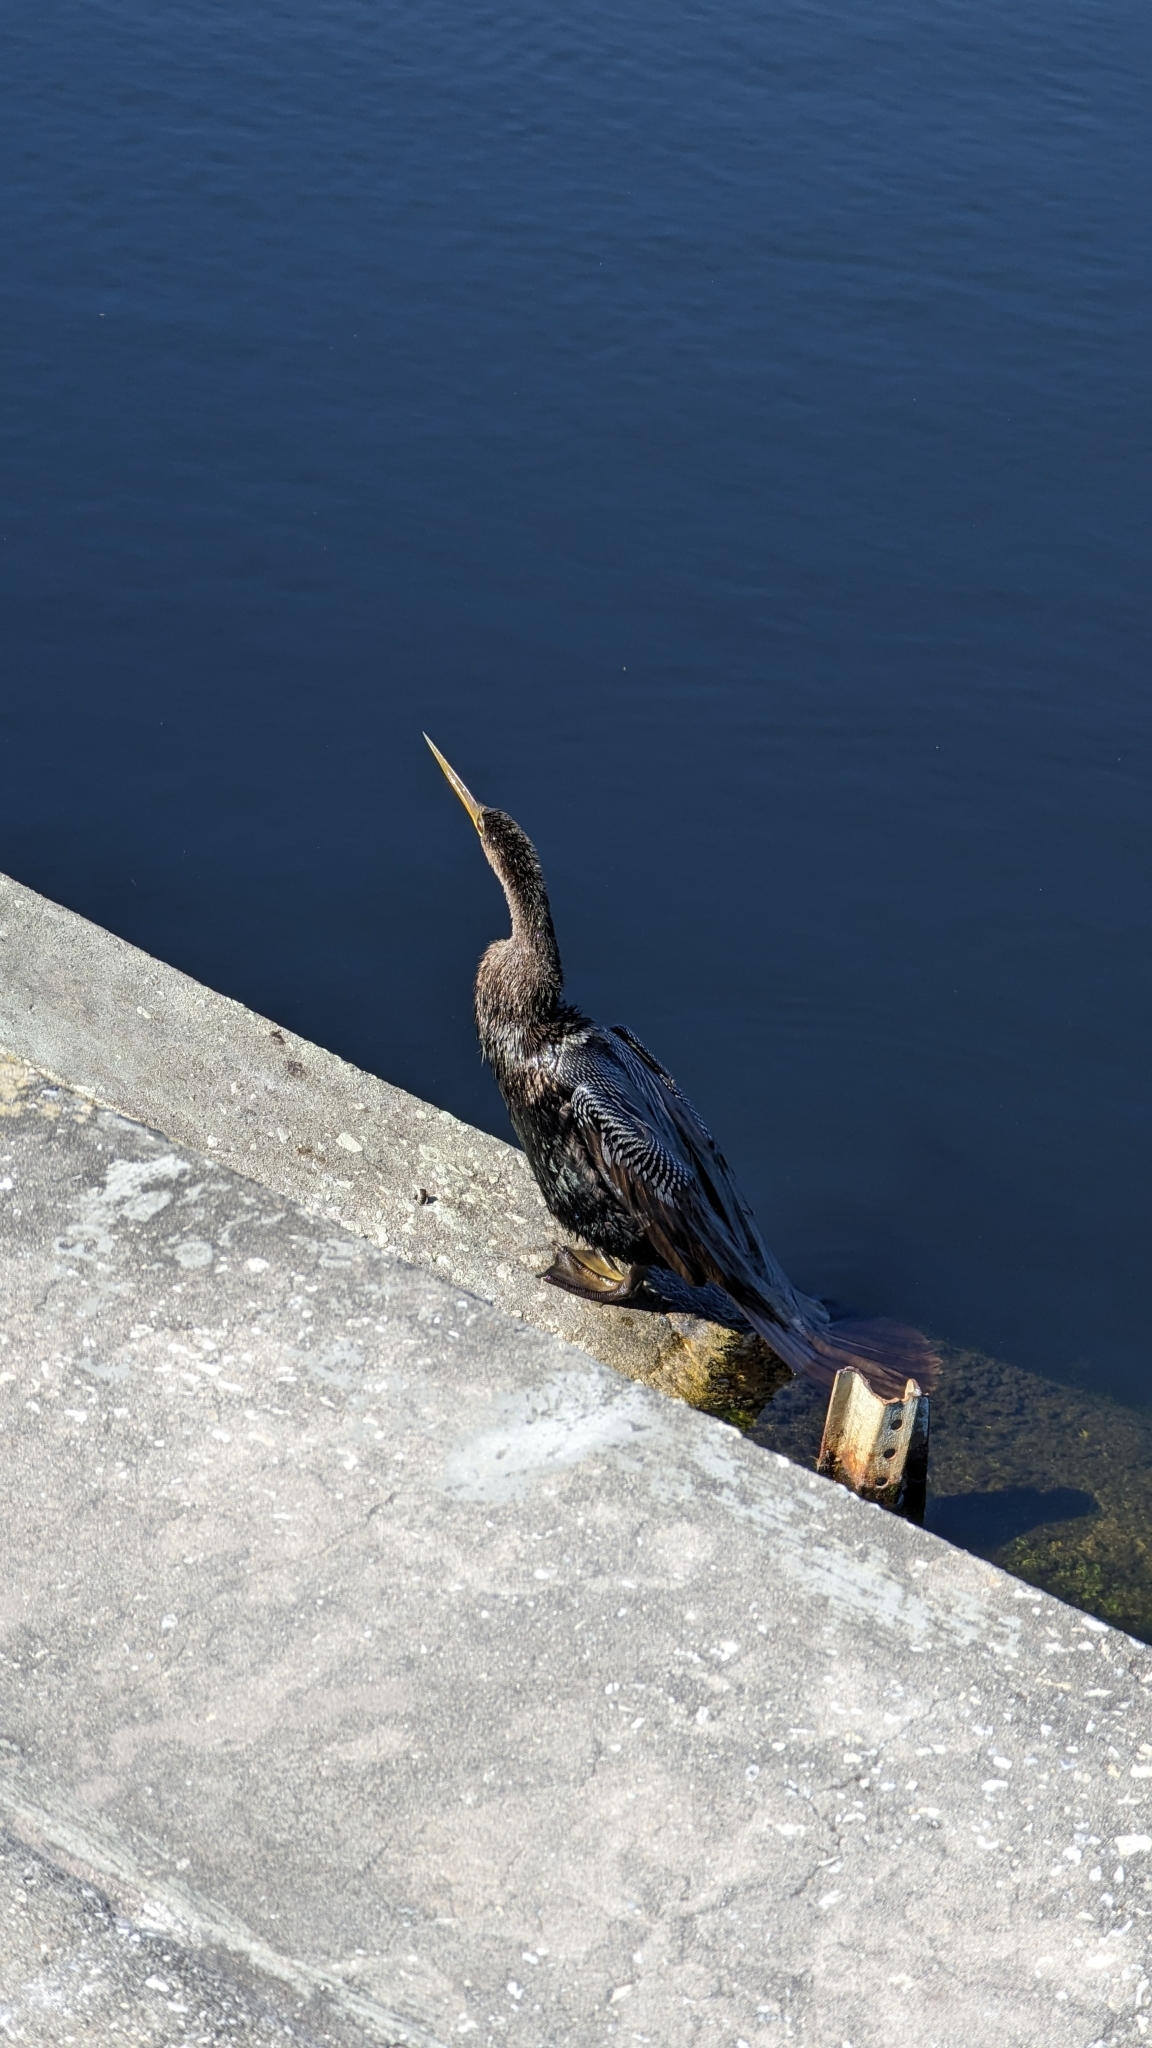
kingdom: Animalia
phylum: Chordata
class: Aves
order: Suliformes
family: Anhingidae
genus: Anhinga
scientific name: Anhinga anhinga
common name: Anhinga
